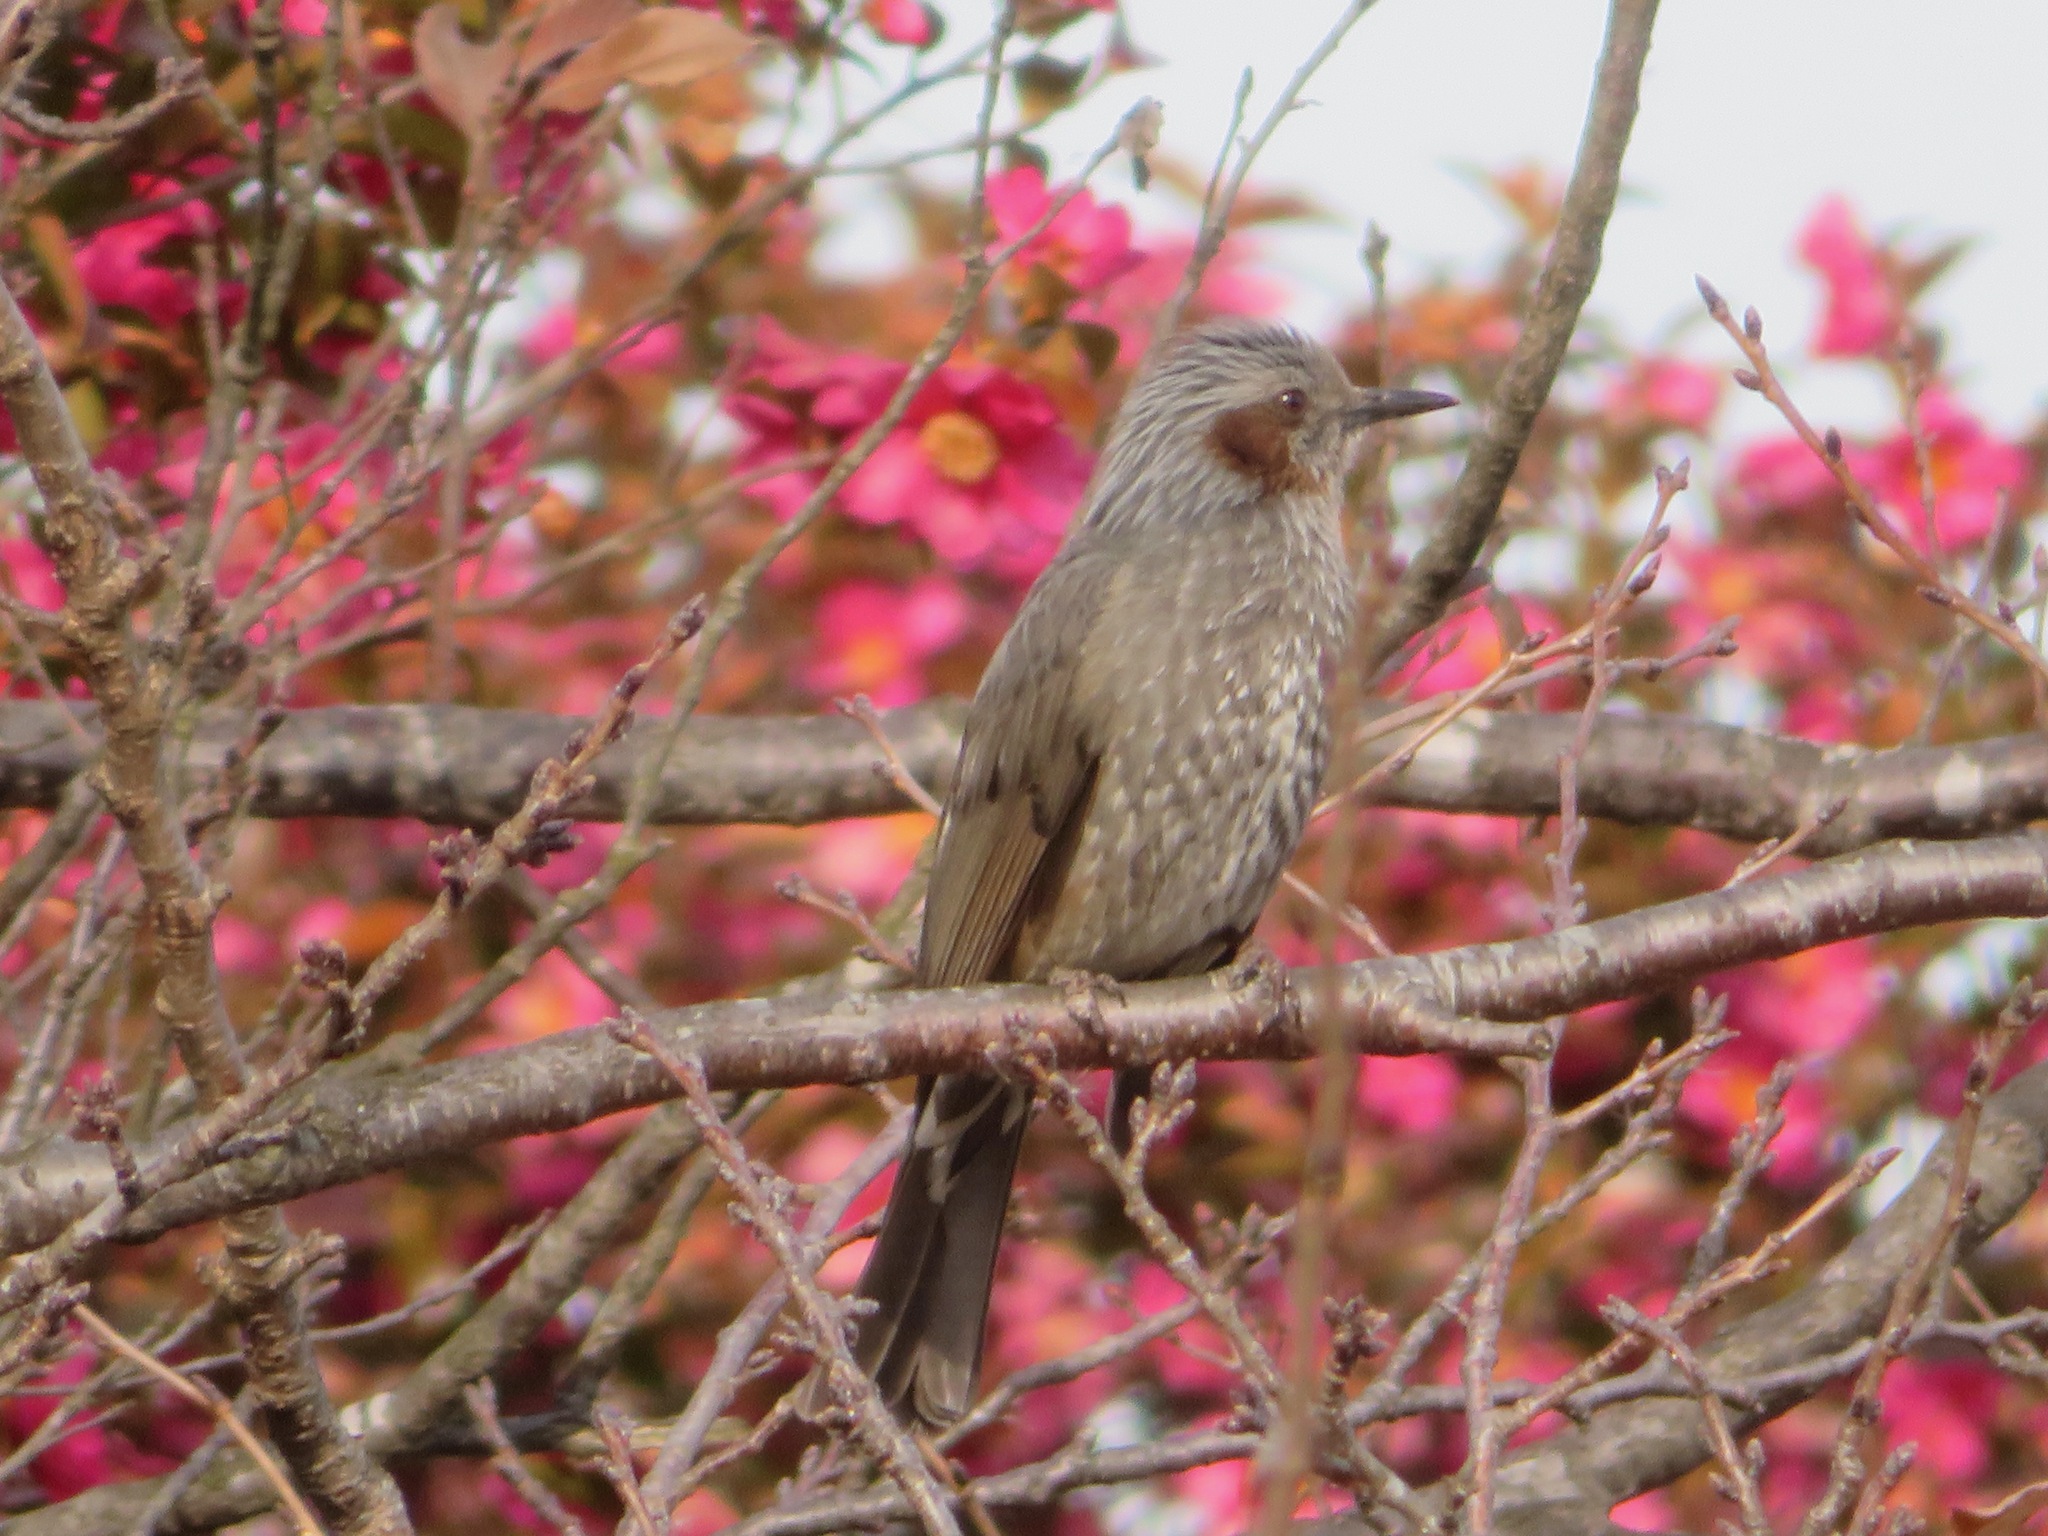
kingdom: Animalia
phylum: Chordata
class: Aves
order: Passeriformes
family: Pycnonotidae
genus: Hypsipetes
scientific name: Hypsipetes amaurotis
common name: Brown-eared bulbul
